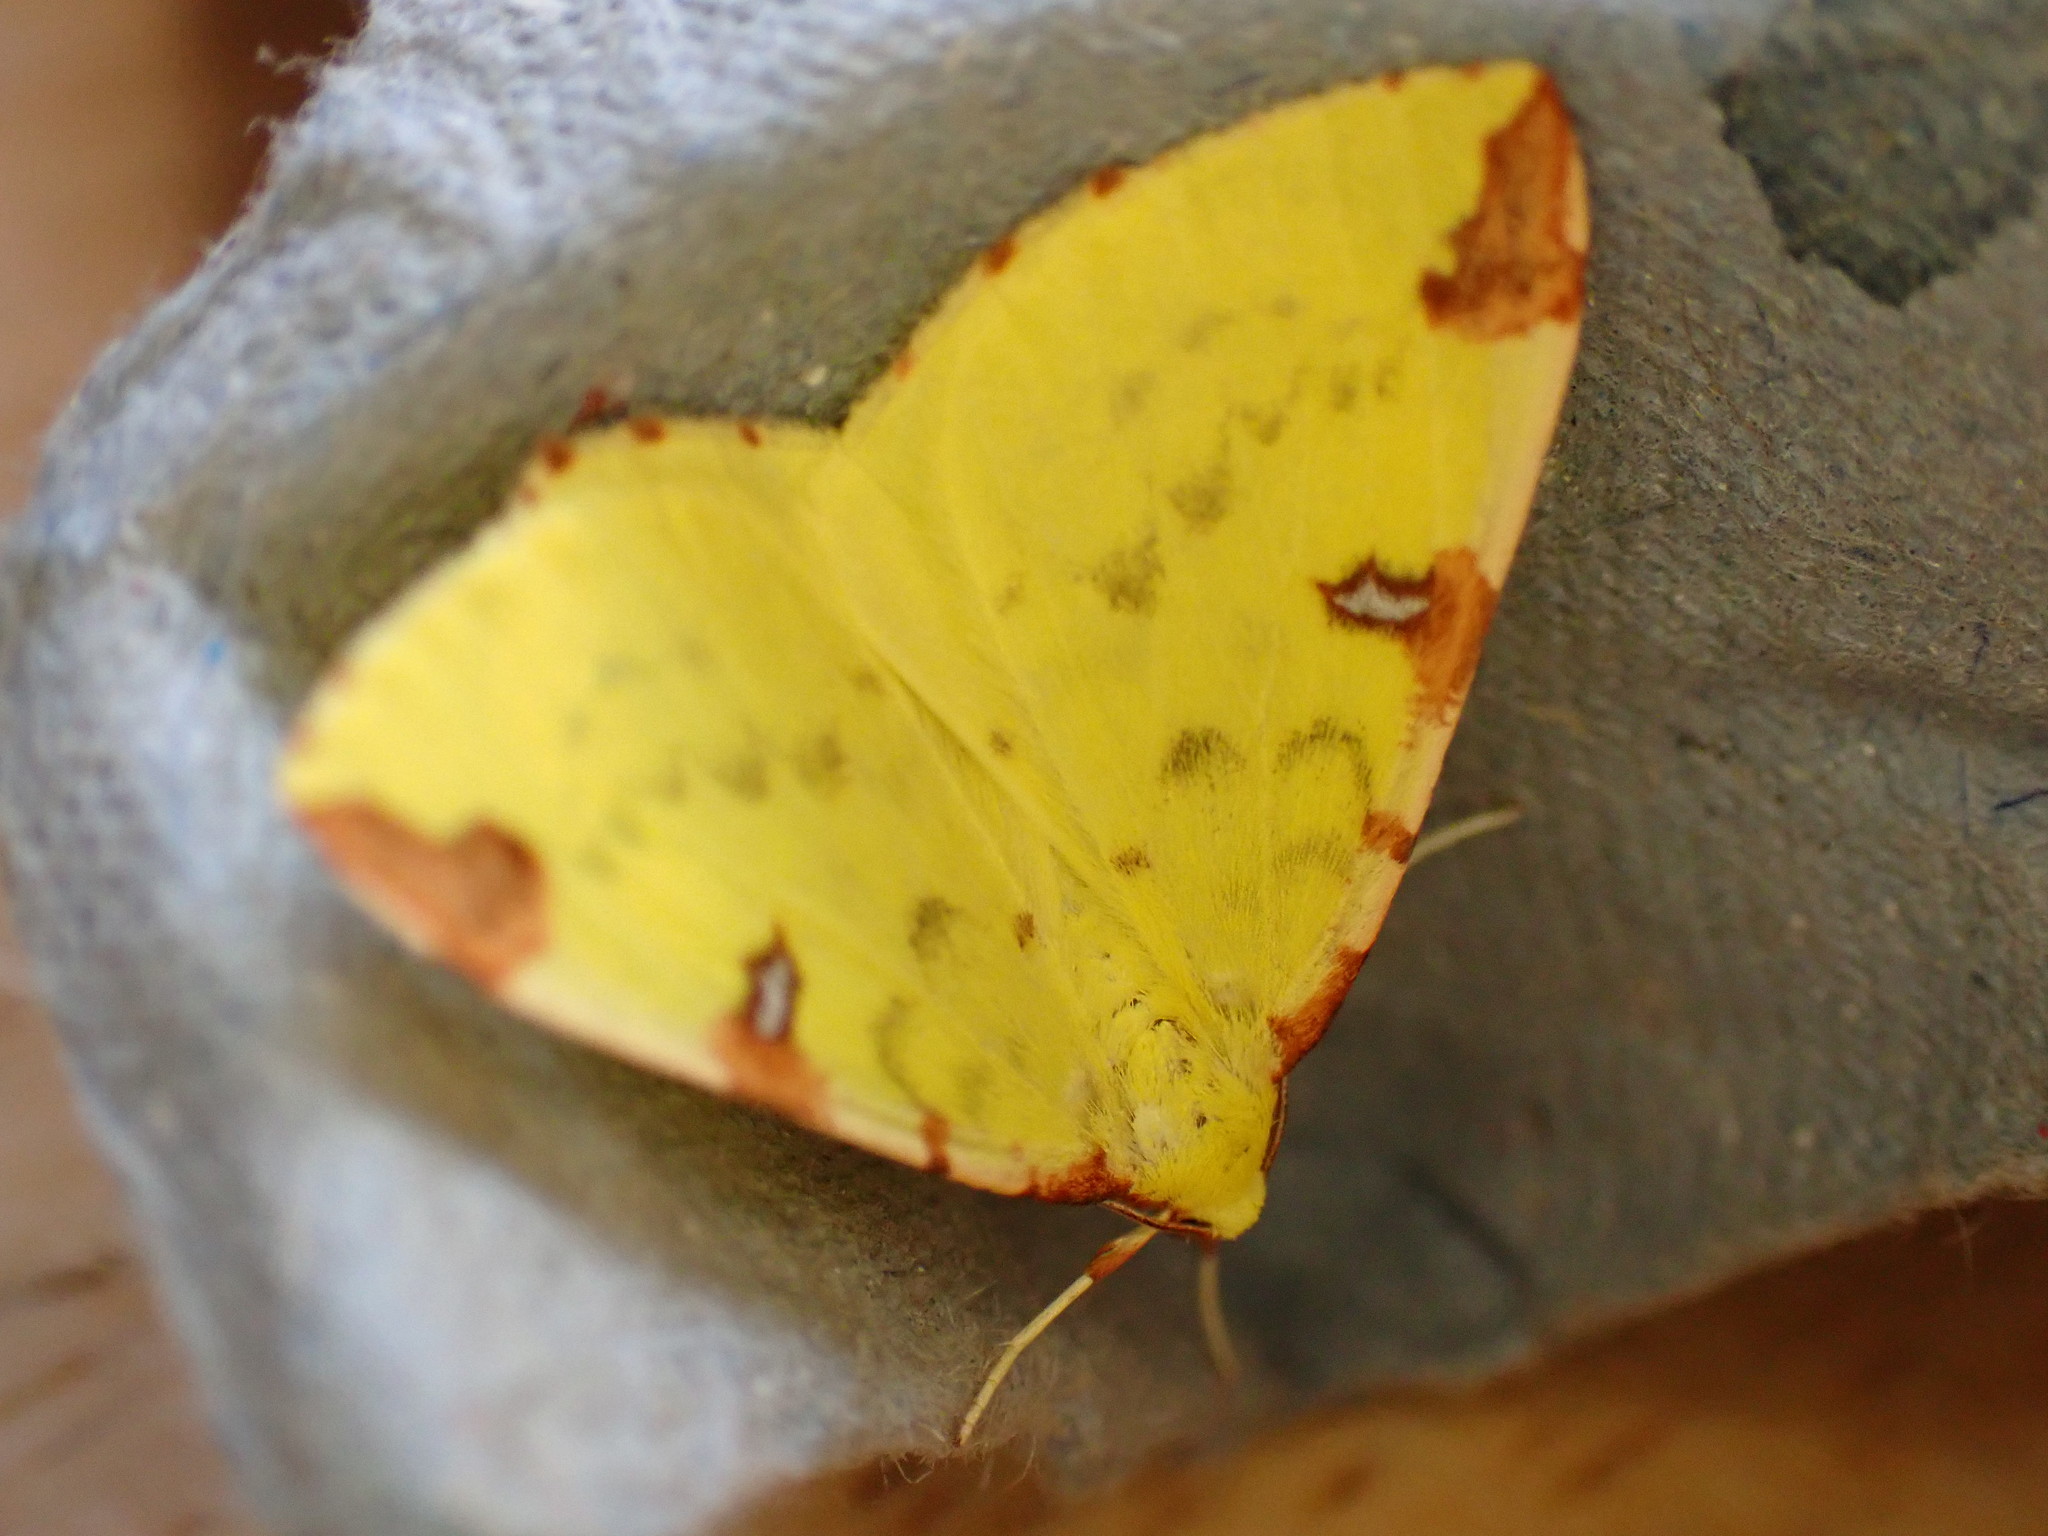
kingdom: Animalia
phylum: Arthropoda
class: Insecta
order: Lepidoptera
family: Geometridae
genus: Opisthograptis
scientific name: Opisthograptis luteolata
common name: Brimstone moth
